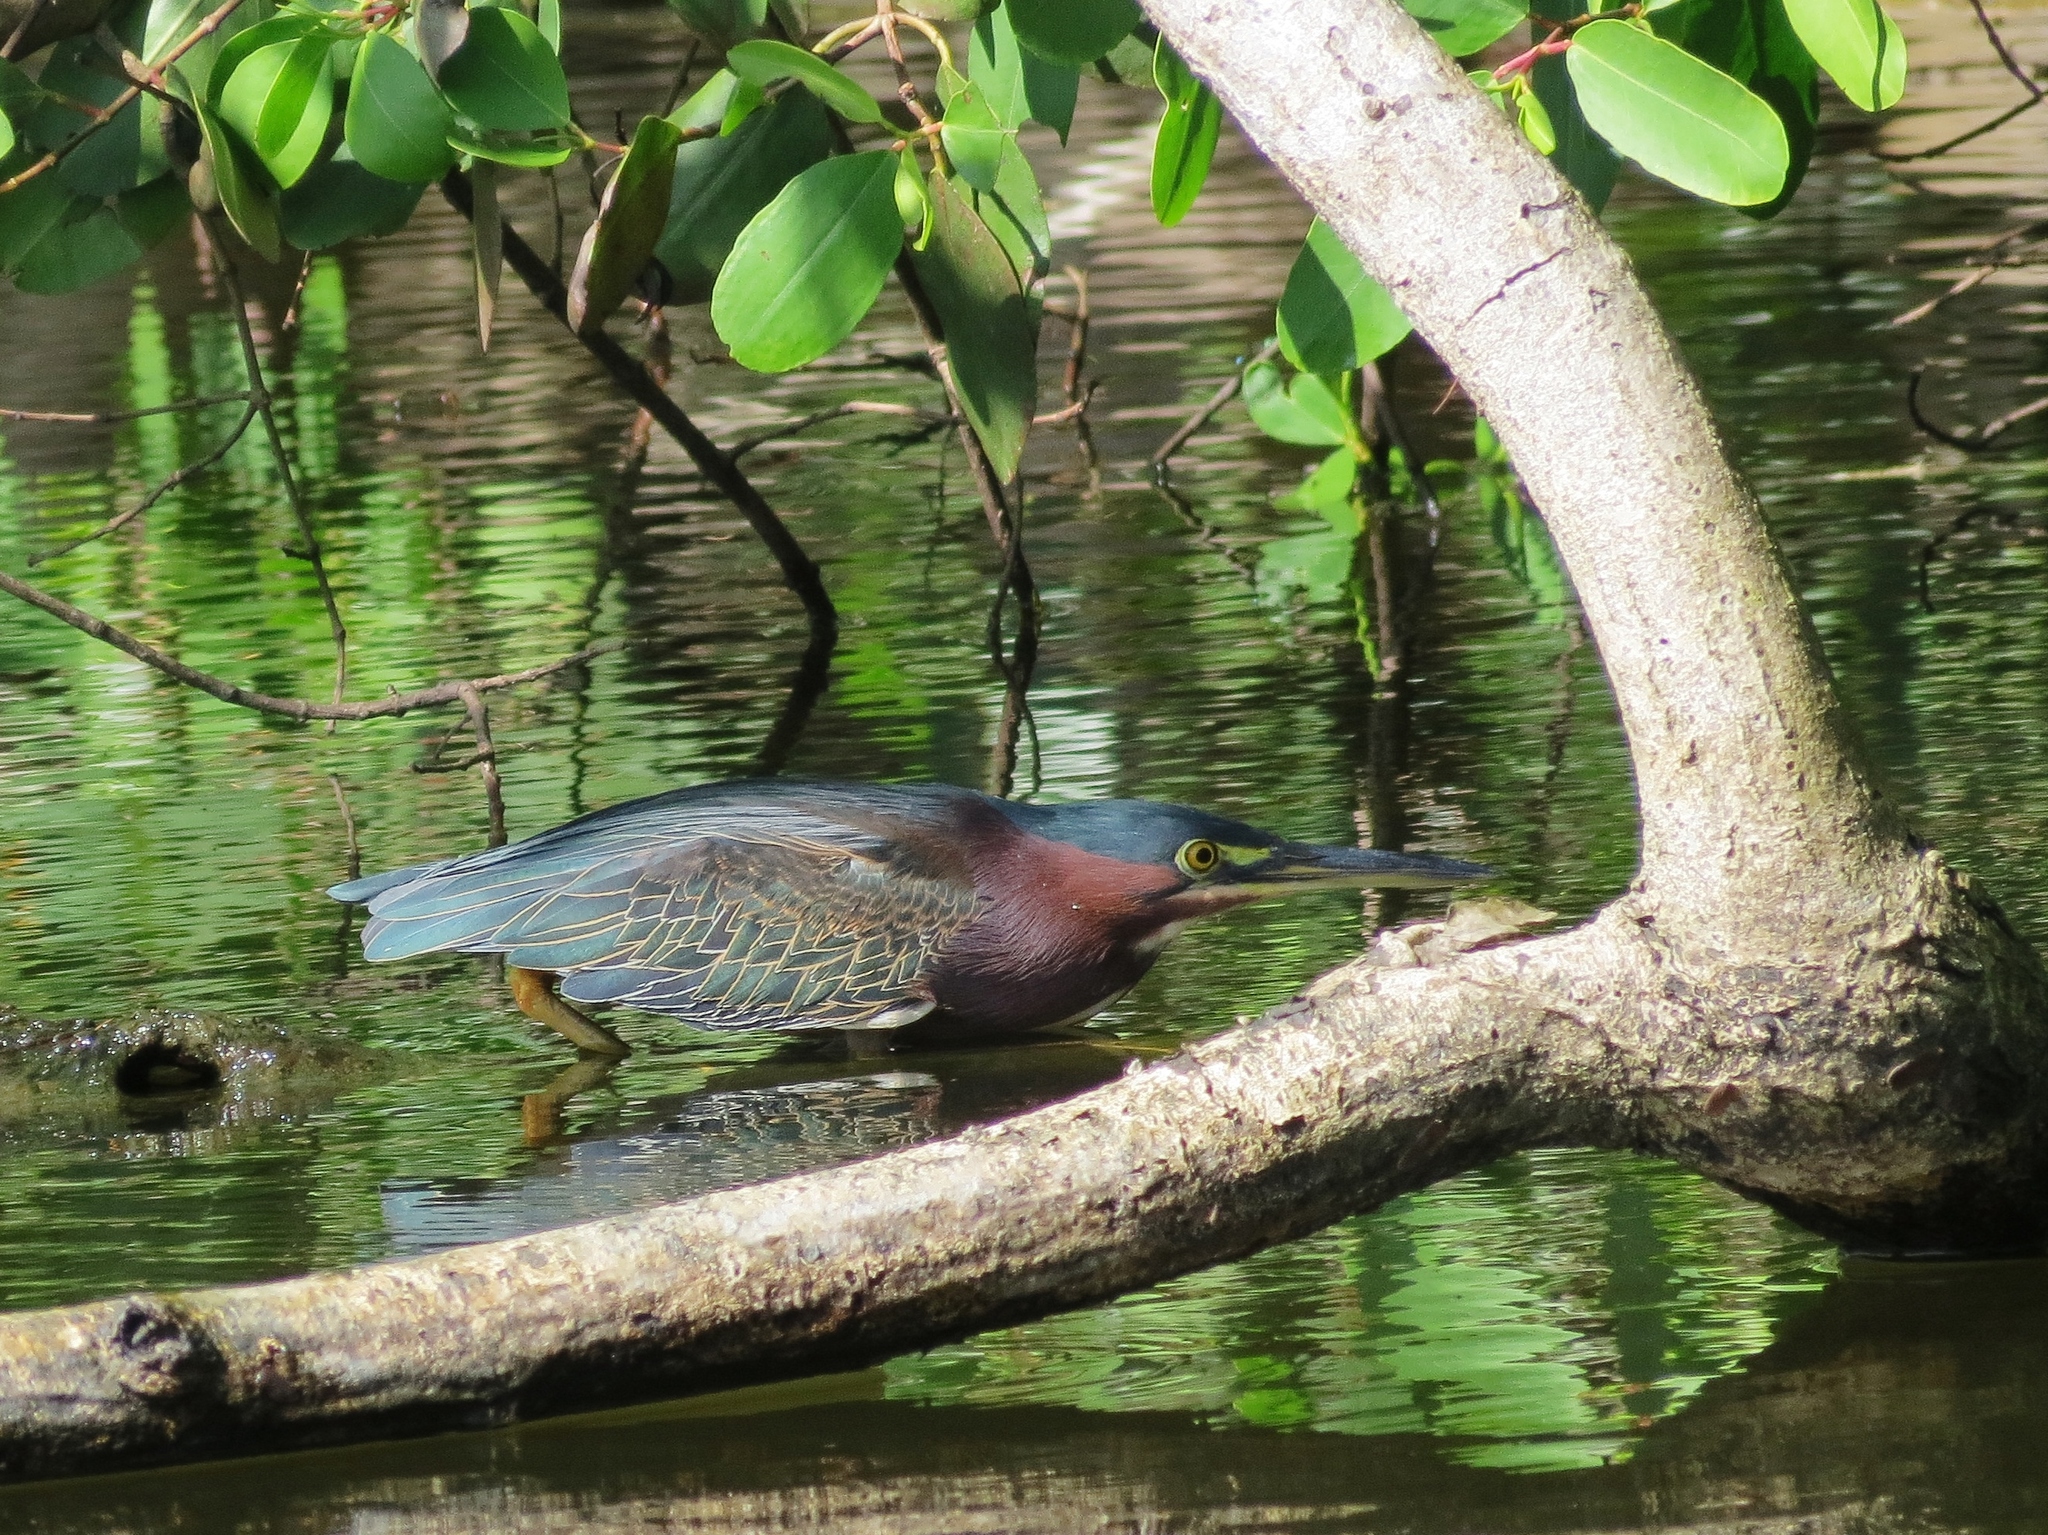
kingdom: Animalia
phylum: Chordata
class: Aves
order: Pelecaniformes
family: Ardeidae
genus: Butorides
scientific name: Butorides virescens
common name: Green heron
